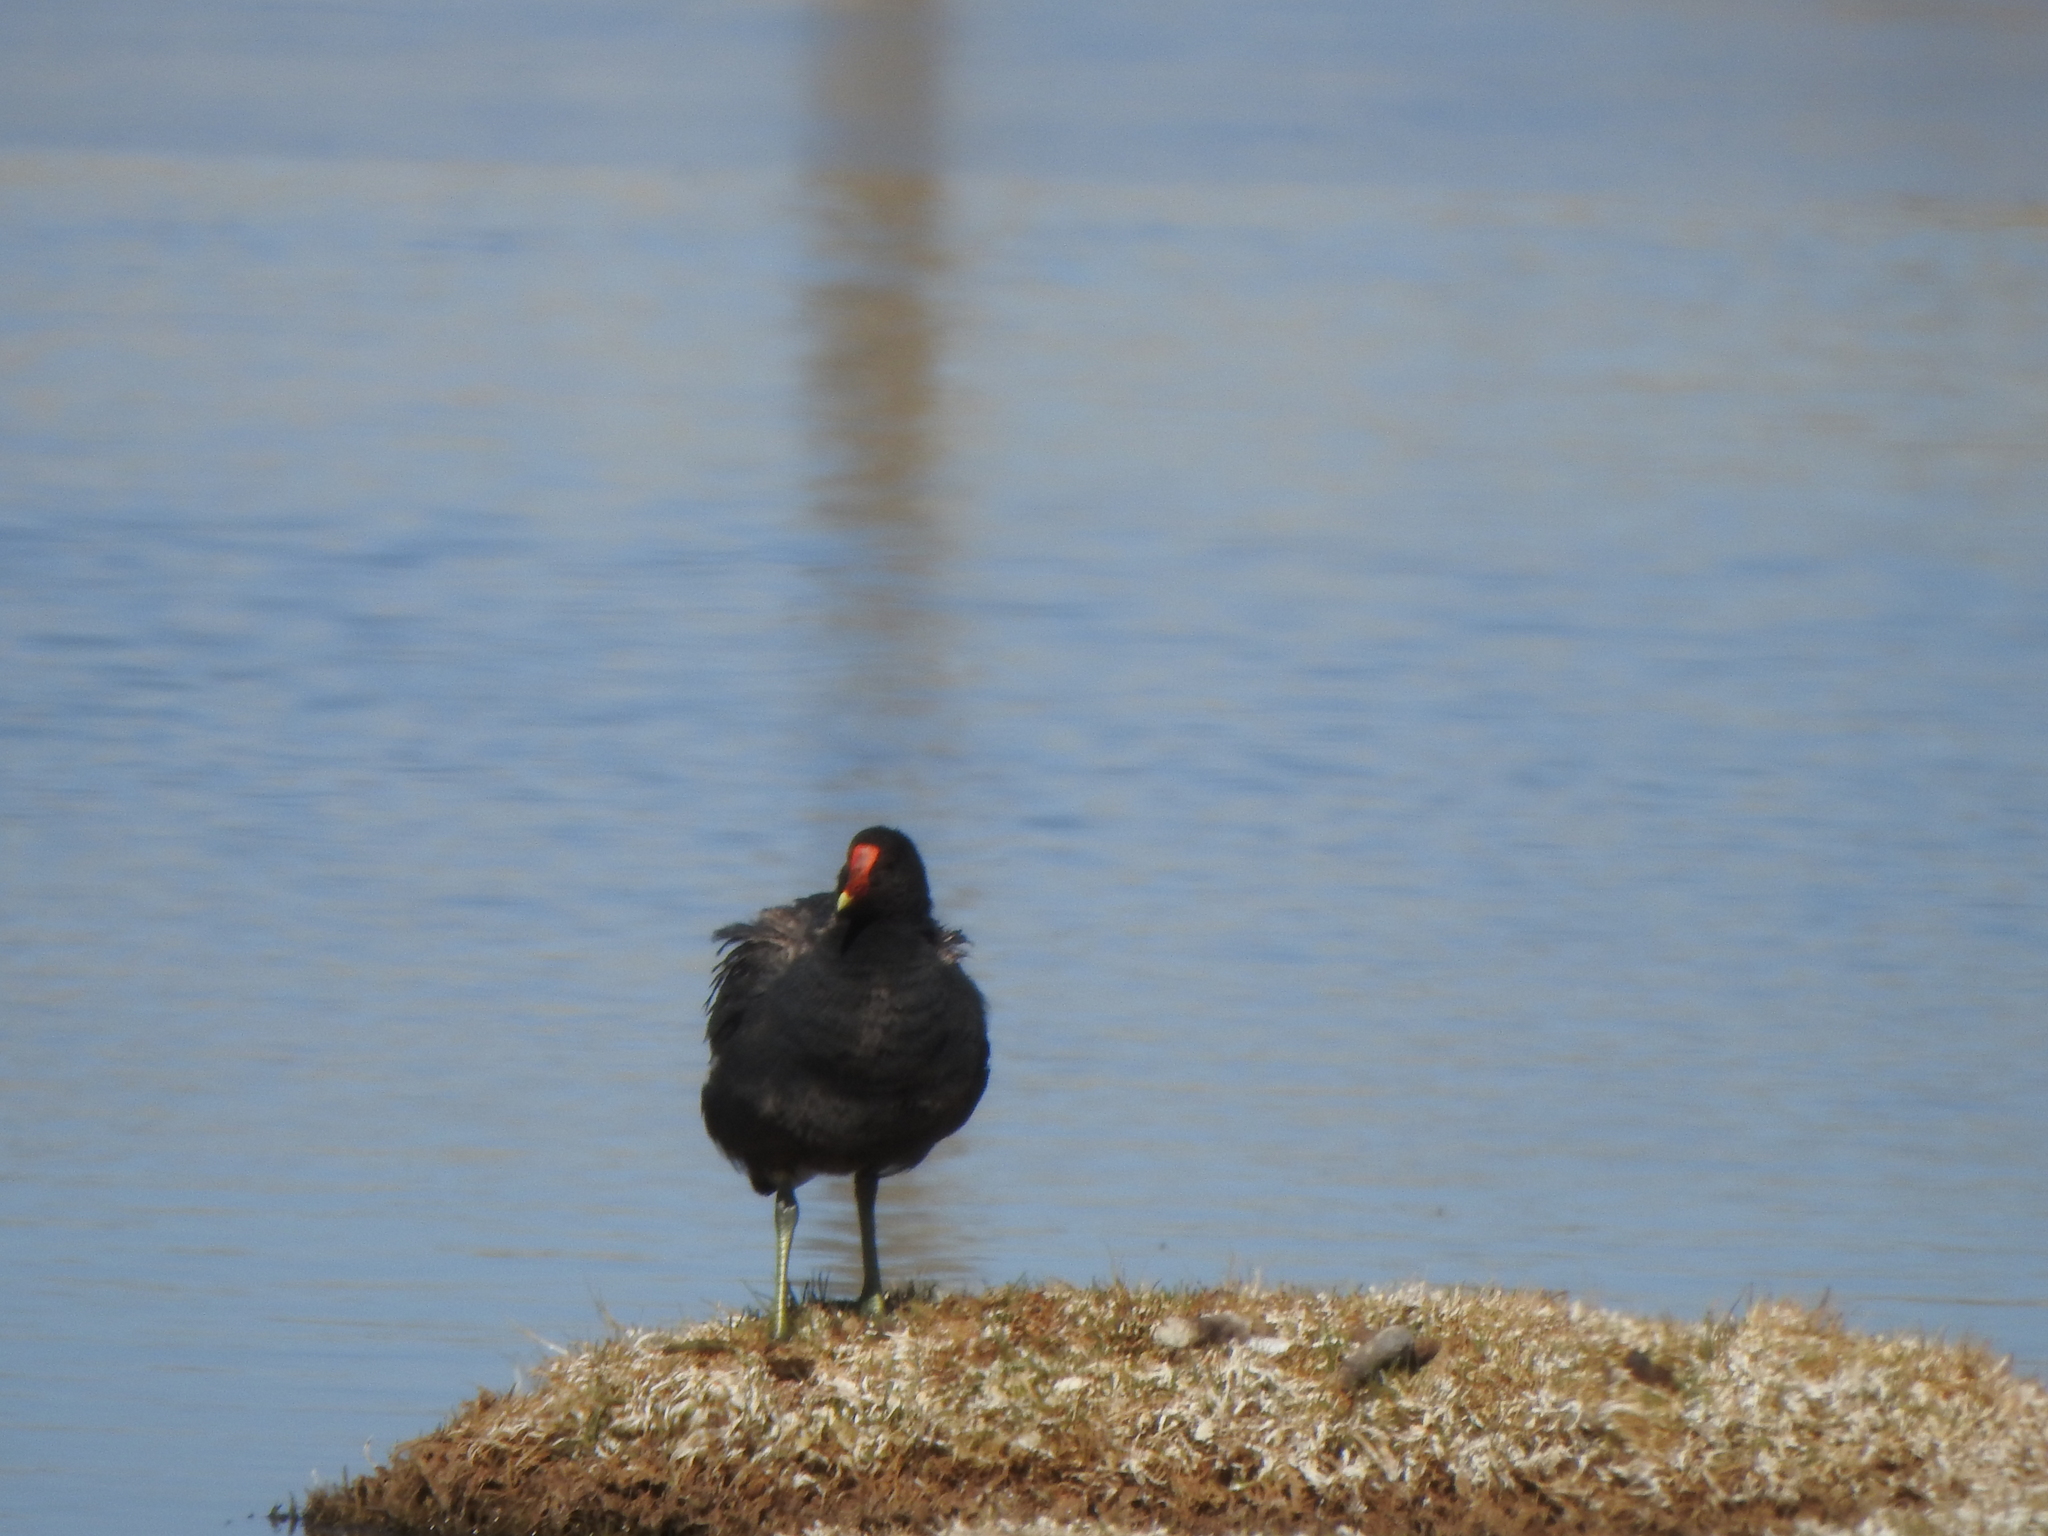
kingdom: Animalia
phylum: Chordata
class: Aves
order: Gruiformes
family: Rallidae
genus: Gallinula
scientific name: Gallinula chloropus
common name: Common moorhen
